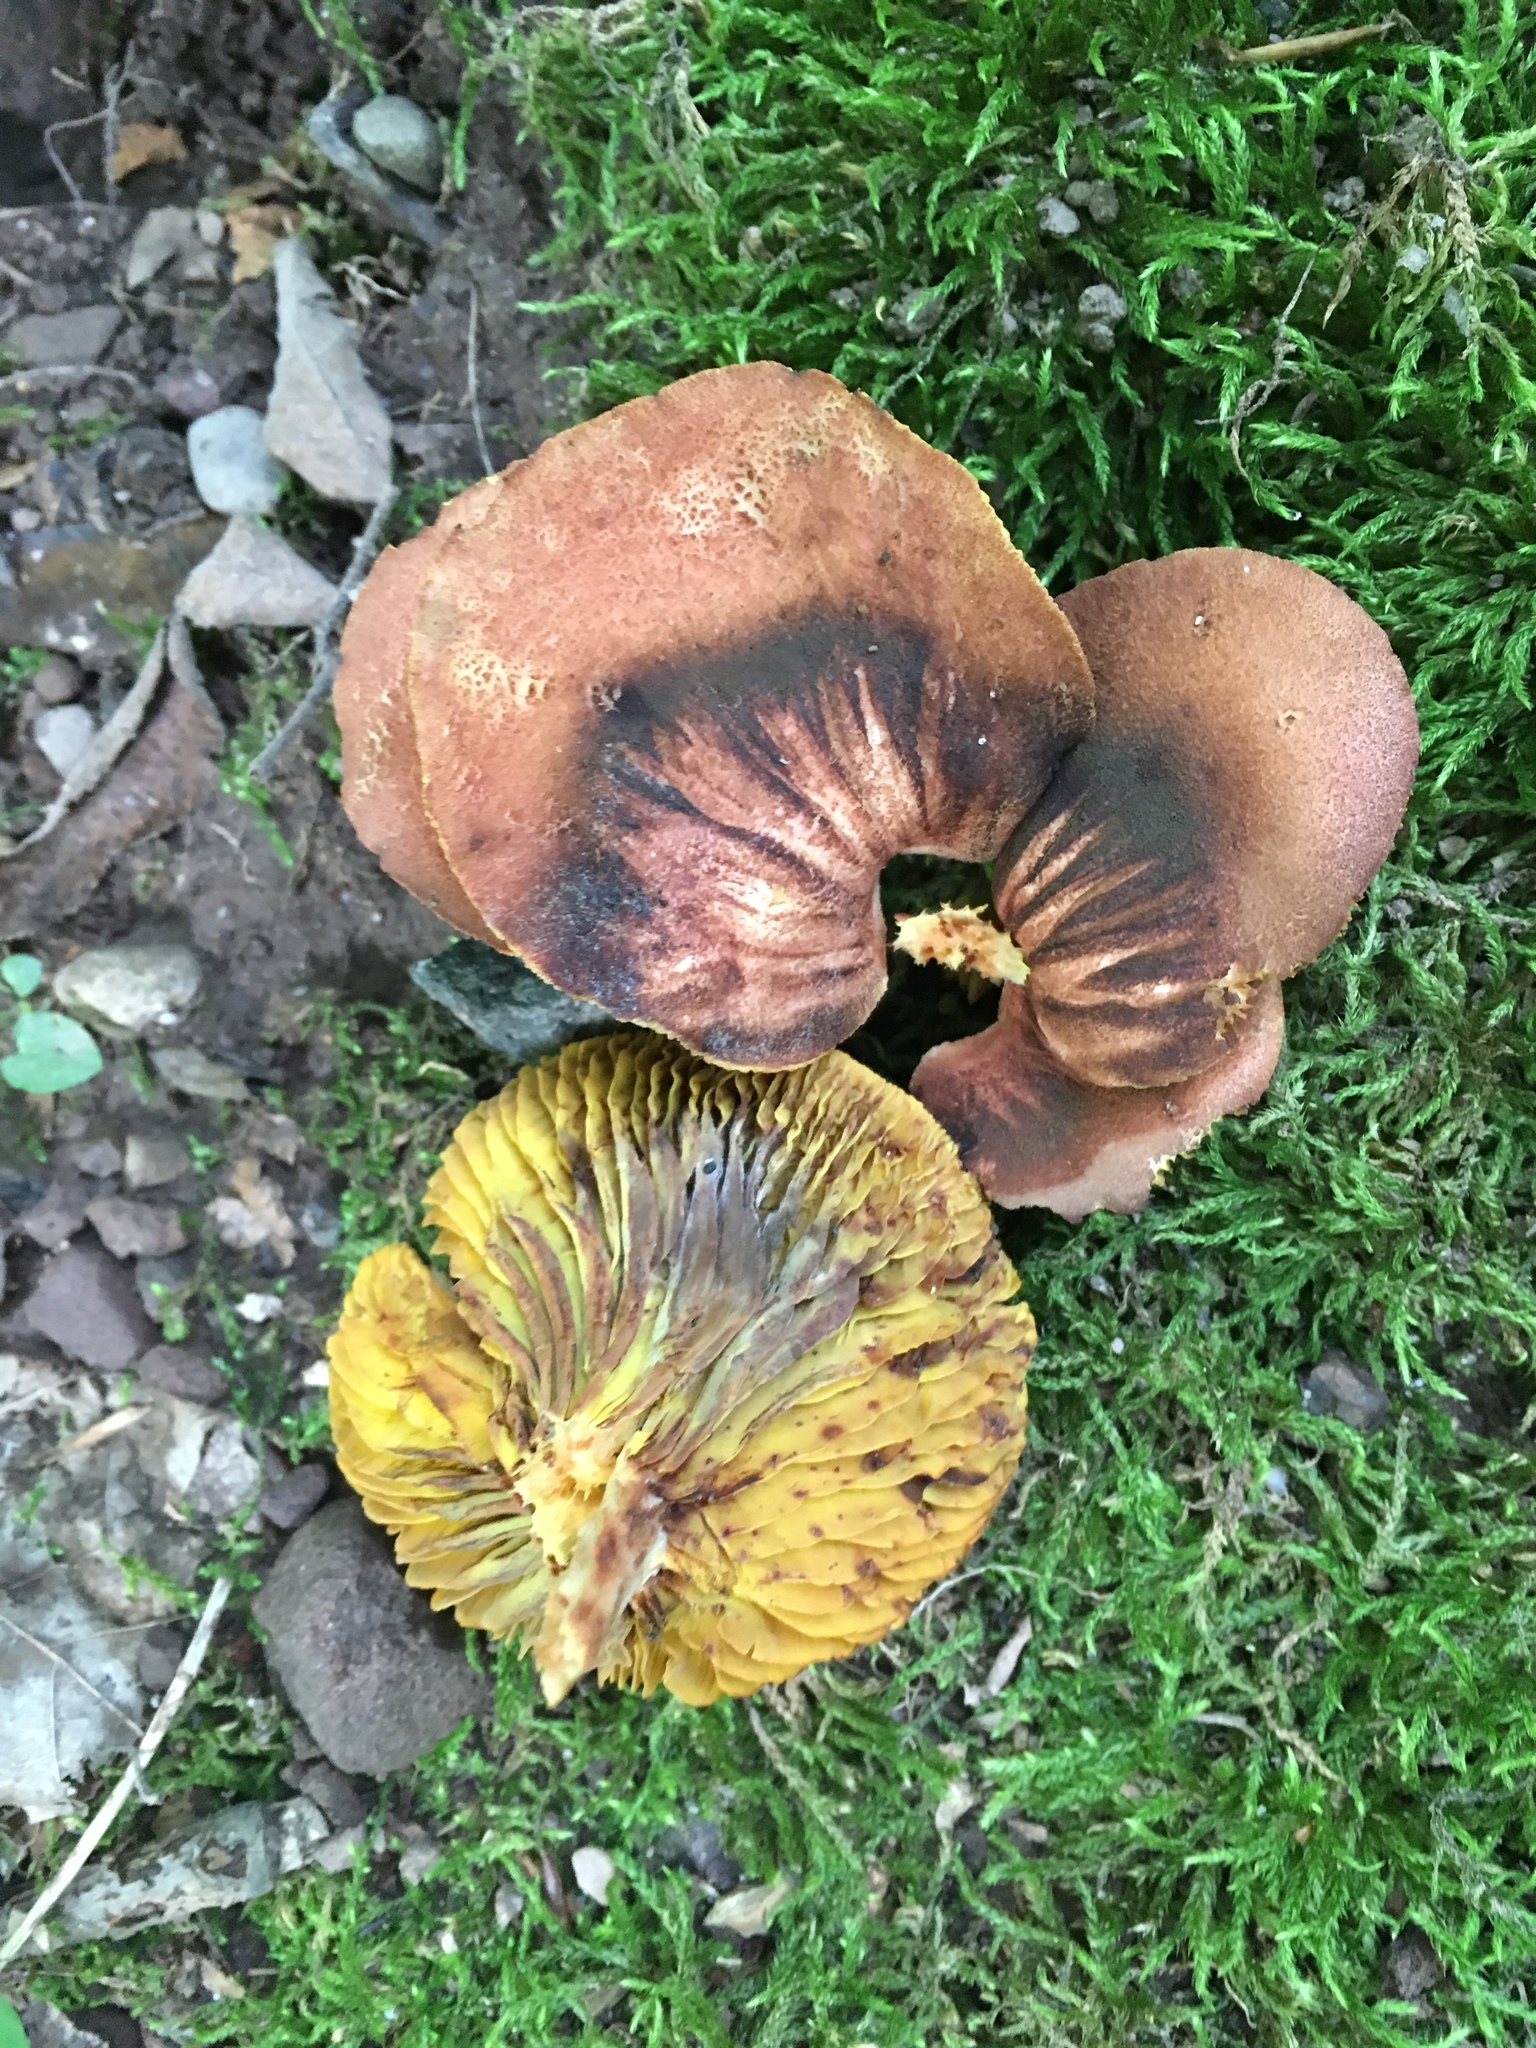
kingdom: Fungi
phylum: Basidiomycota
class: Agaricomycetes
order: Boletales
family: Boletaceae
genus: Phylloporus
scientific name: Phylloporus rhodoxanthus
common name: Golden gilled bolete
